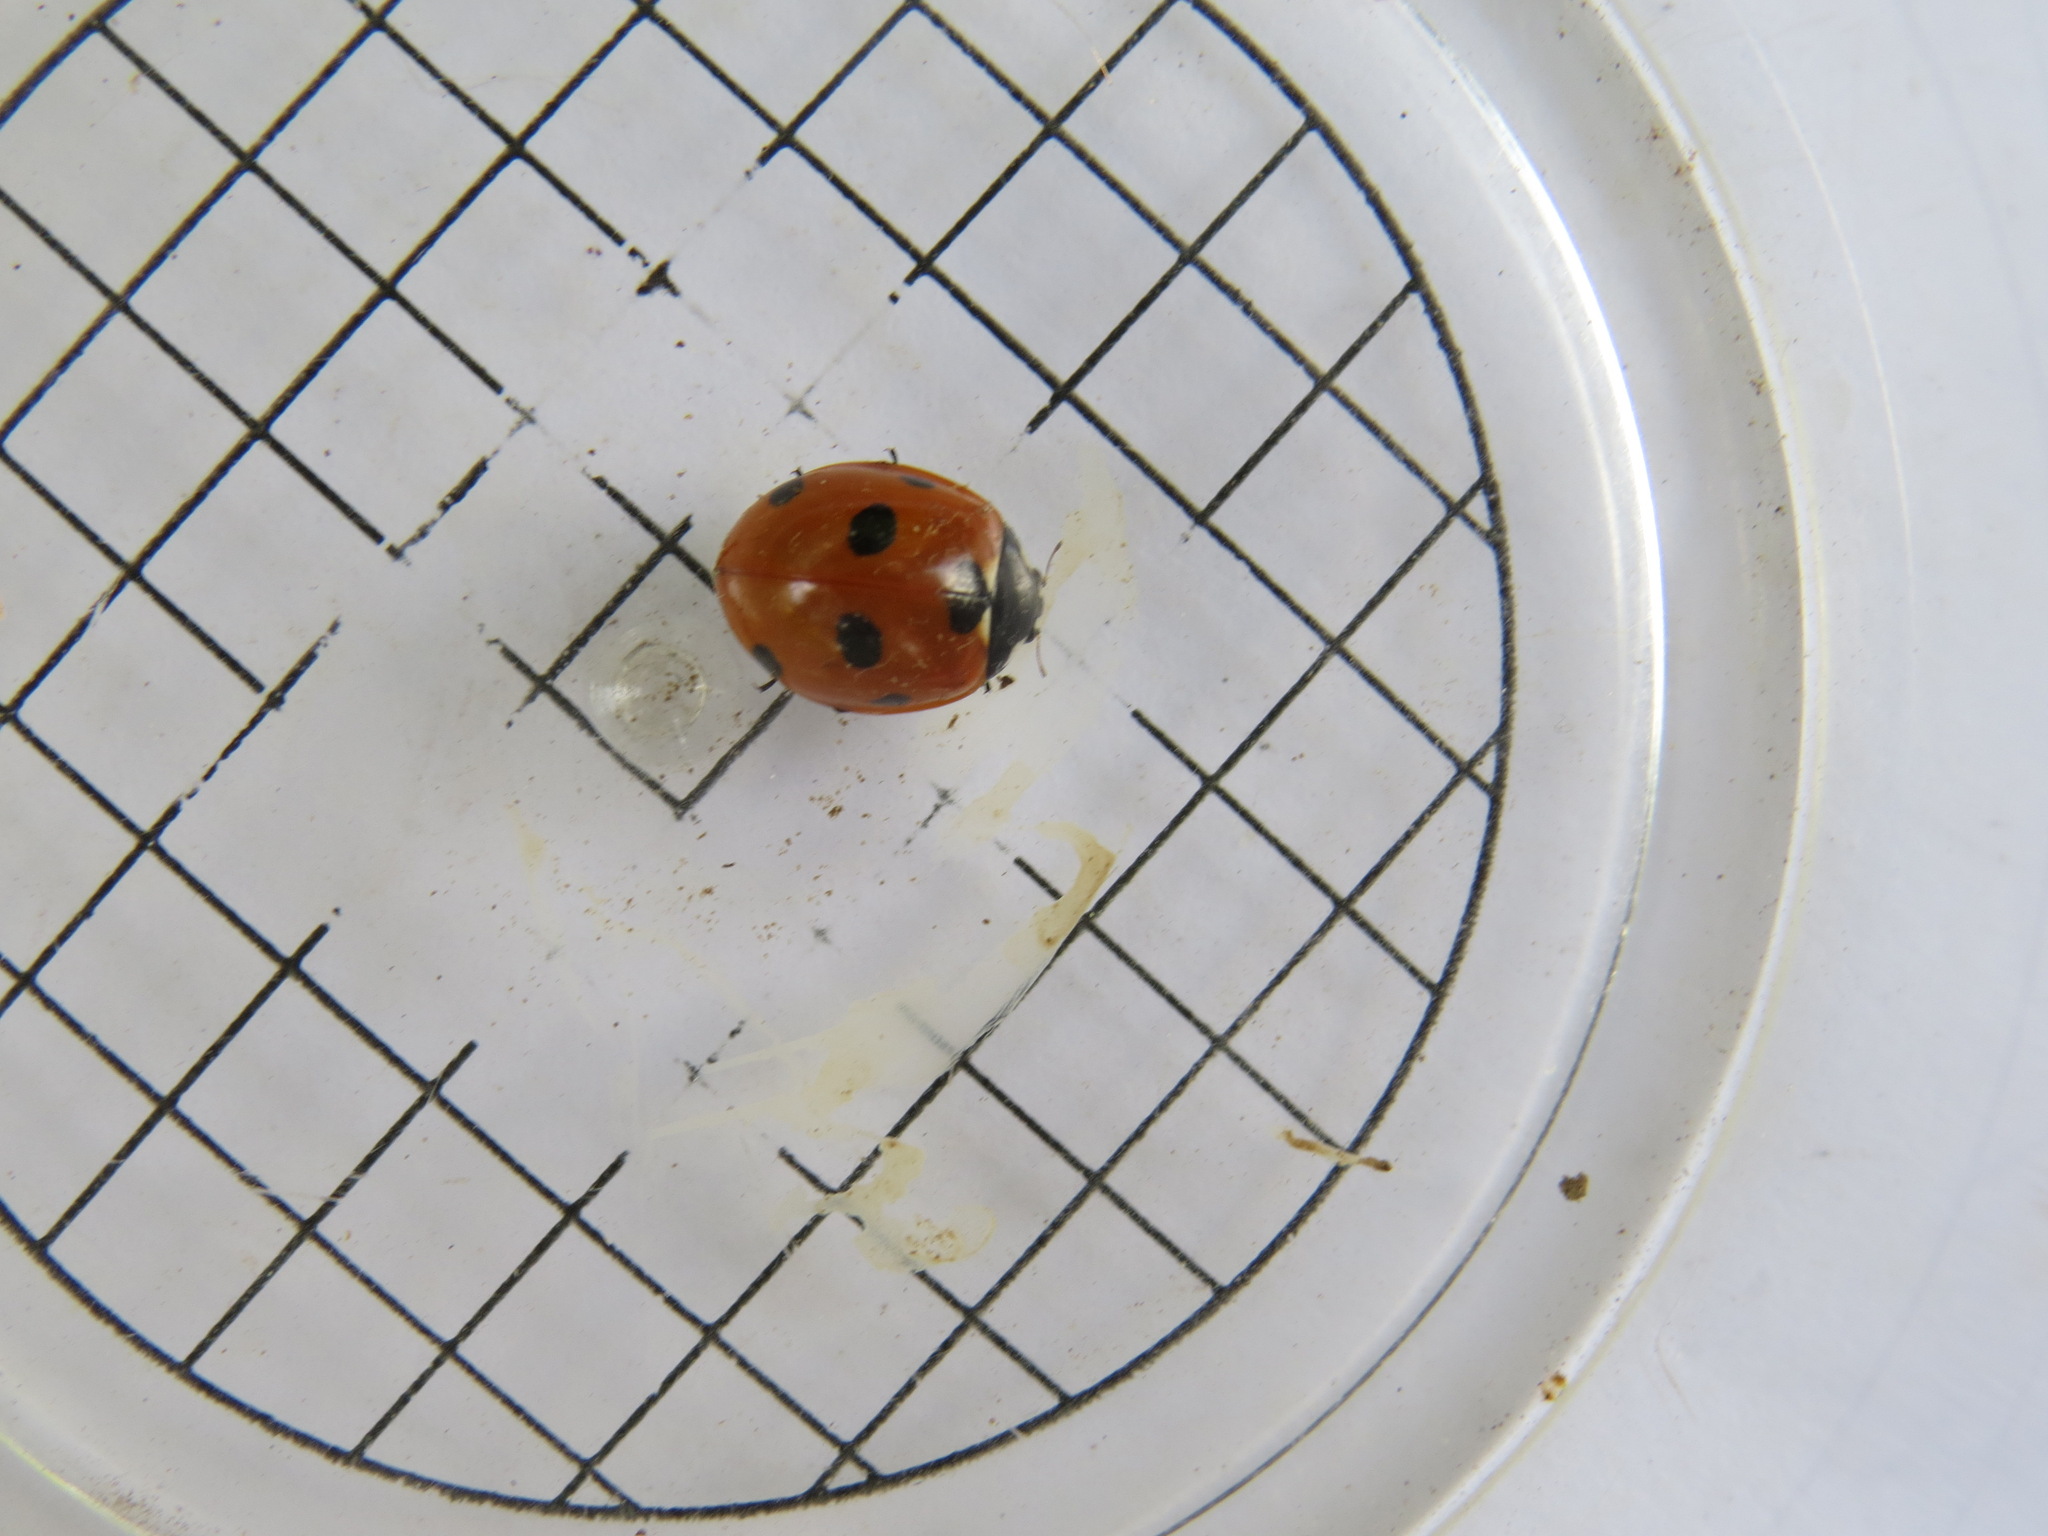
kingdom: Animalia
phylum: Arthropoda
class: Insecta
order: Coleoptera
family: Coccinellidae
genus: Coccinella
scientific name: Coccinella septempunctata
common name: Sevenspotted lady beetle
